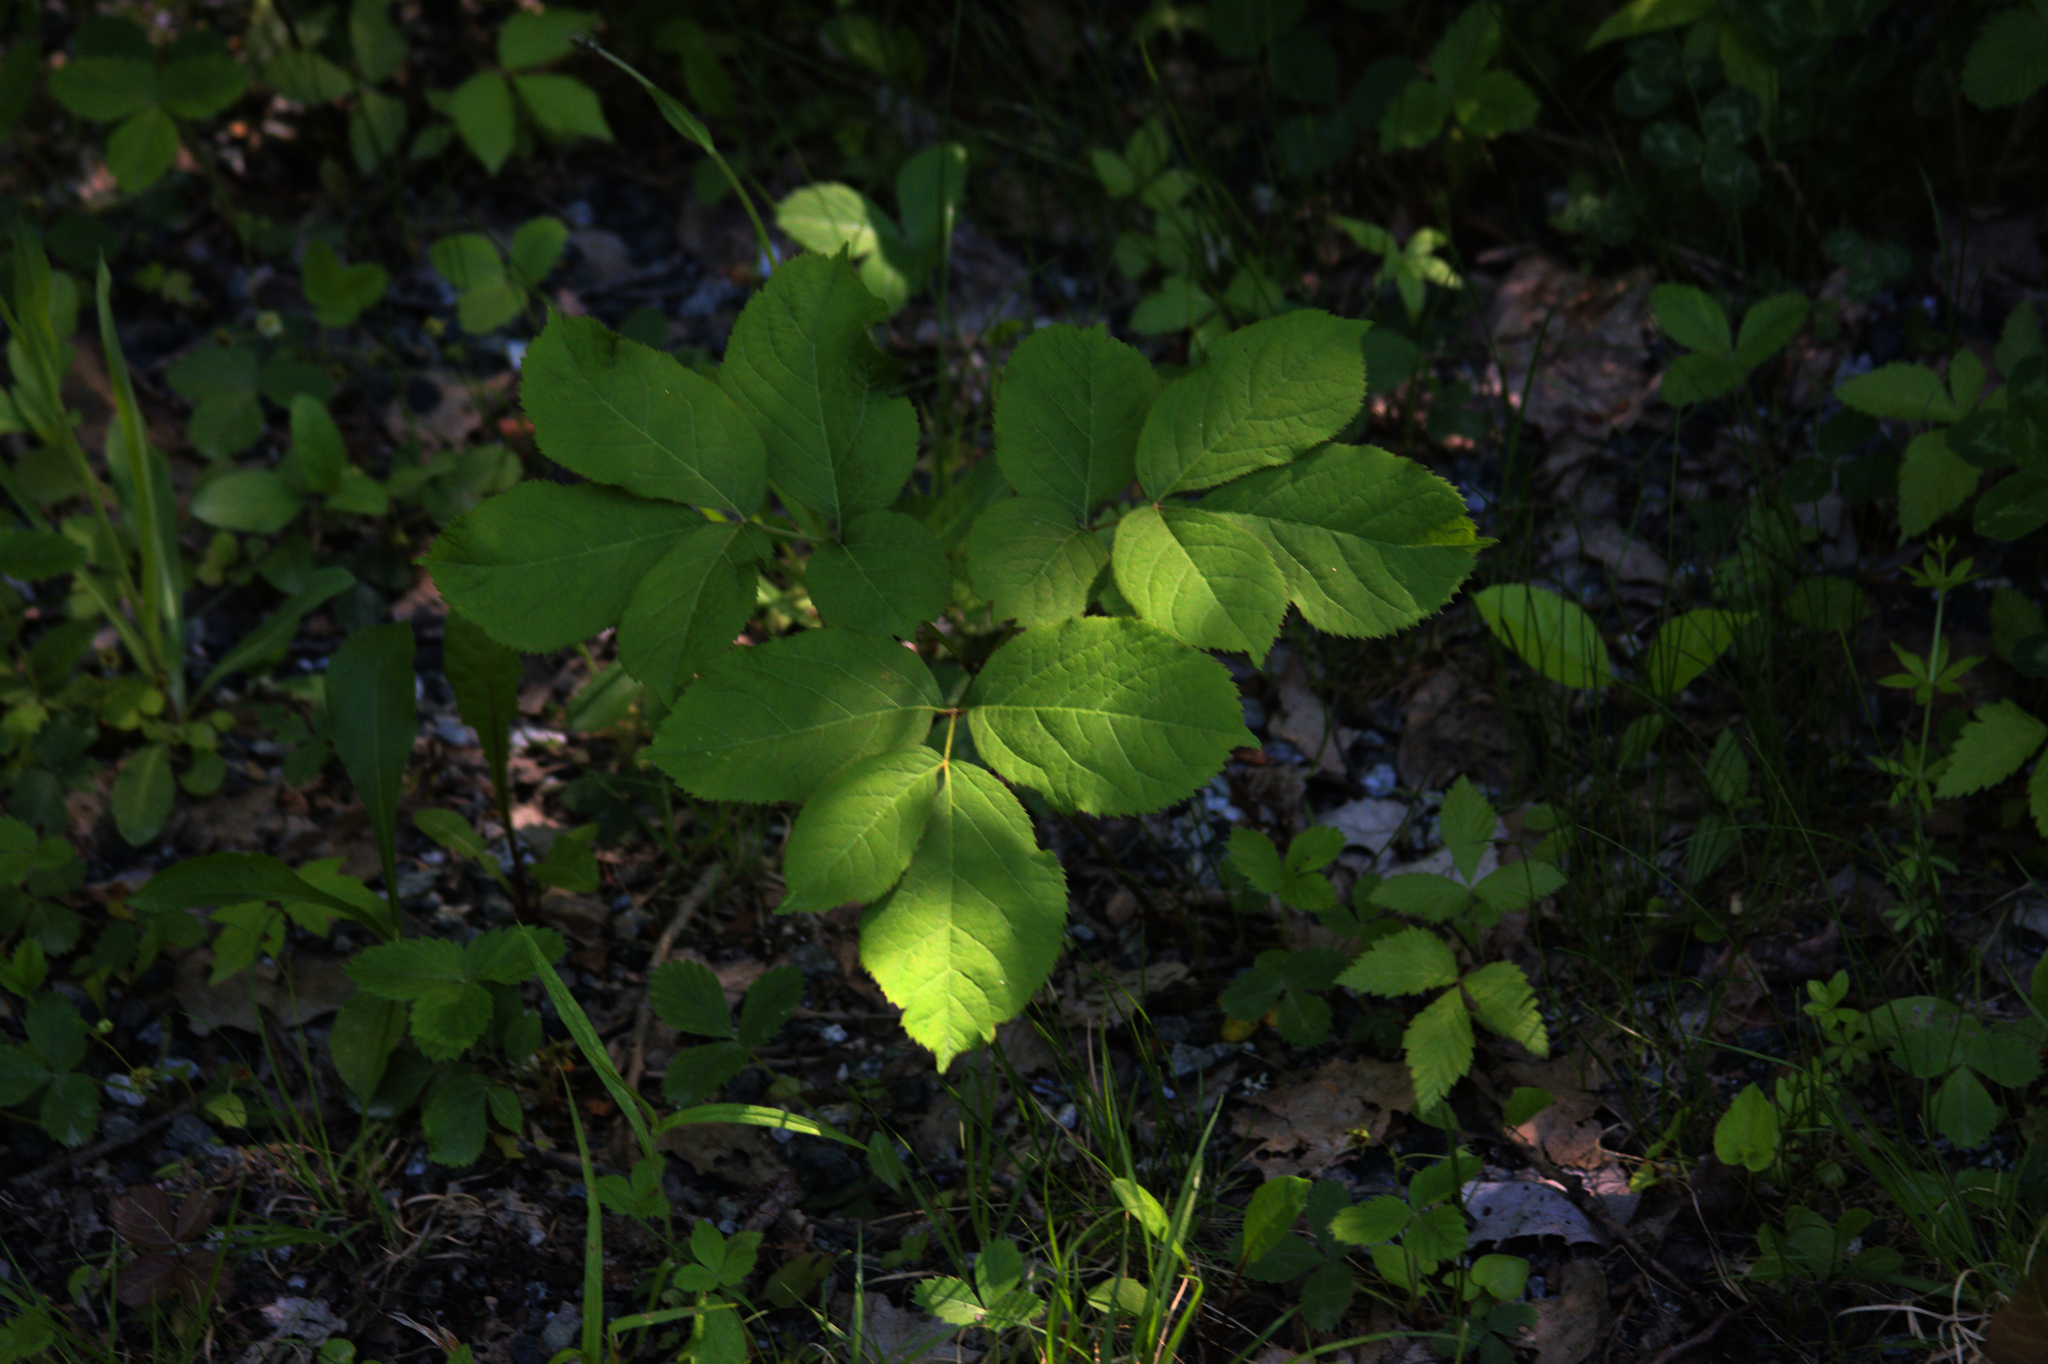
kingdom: Plantae
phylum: Tracheophyta
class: Magnoliopsida
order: Apiales
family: Araliaceae
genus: Aralia
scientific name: Aralia nudicaulis
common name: Wild sarsaparilla
